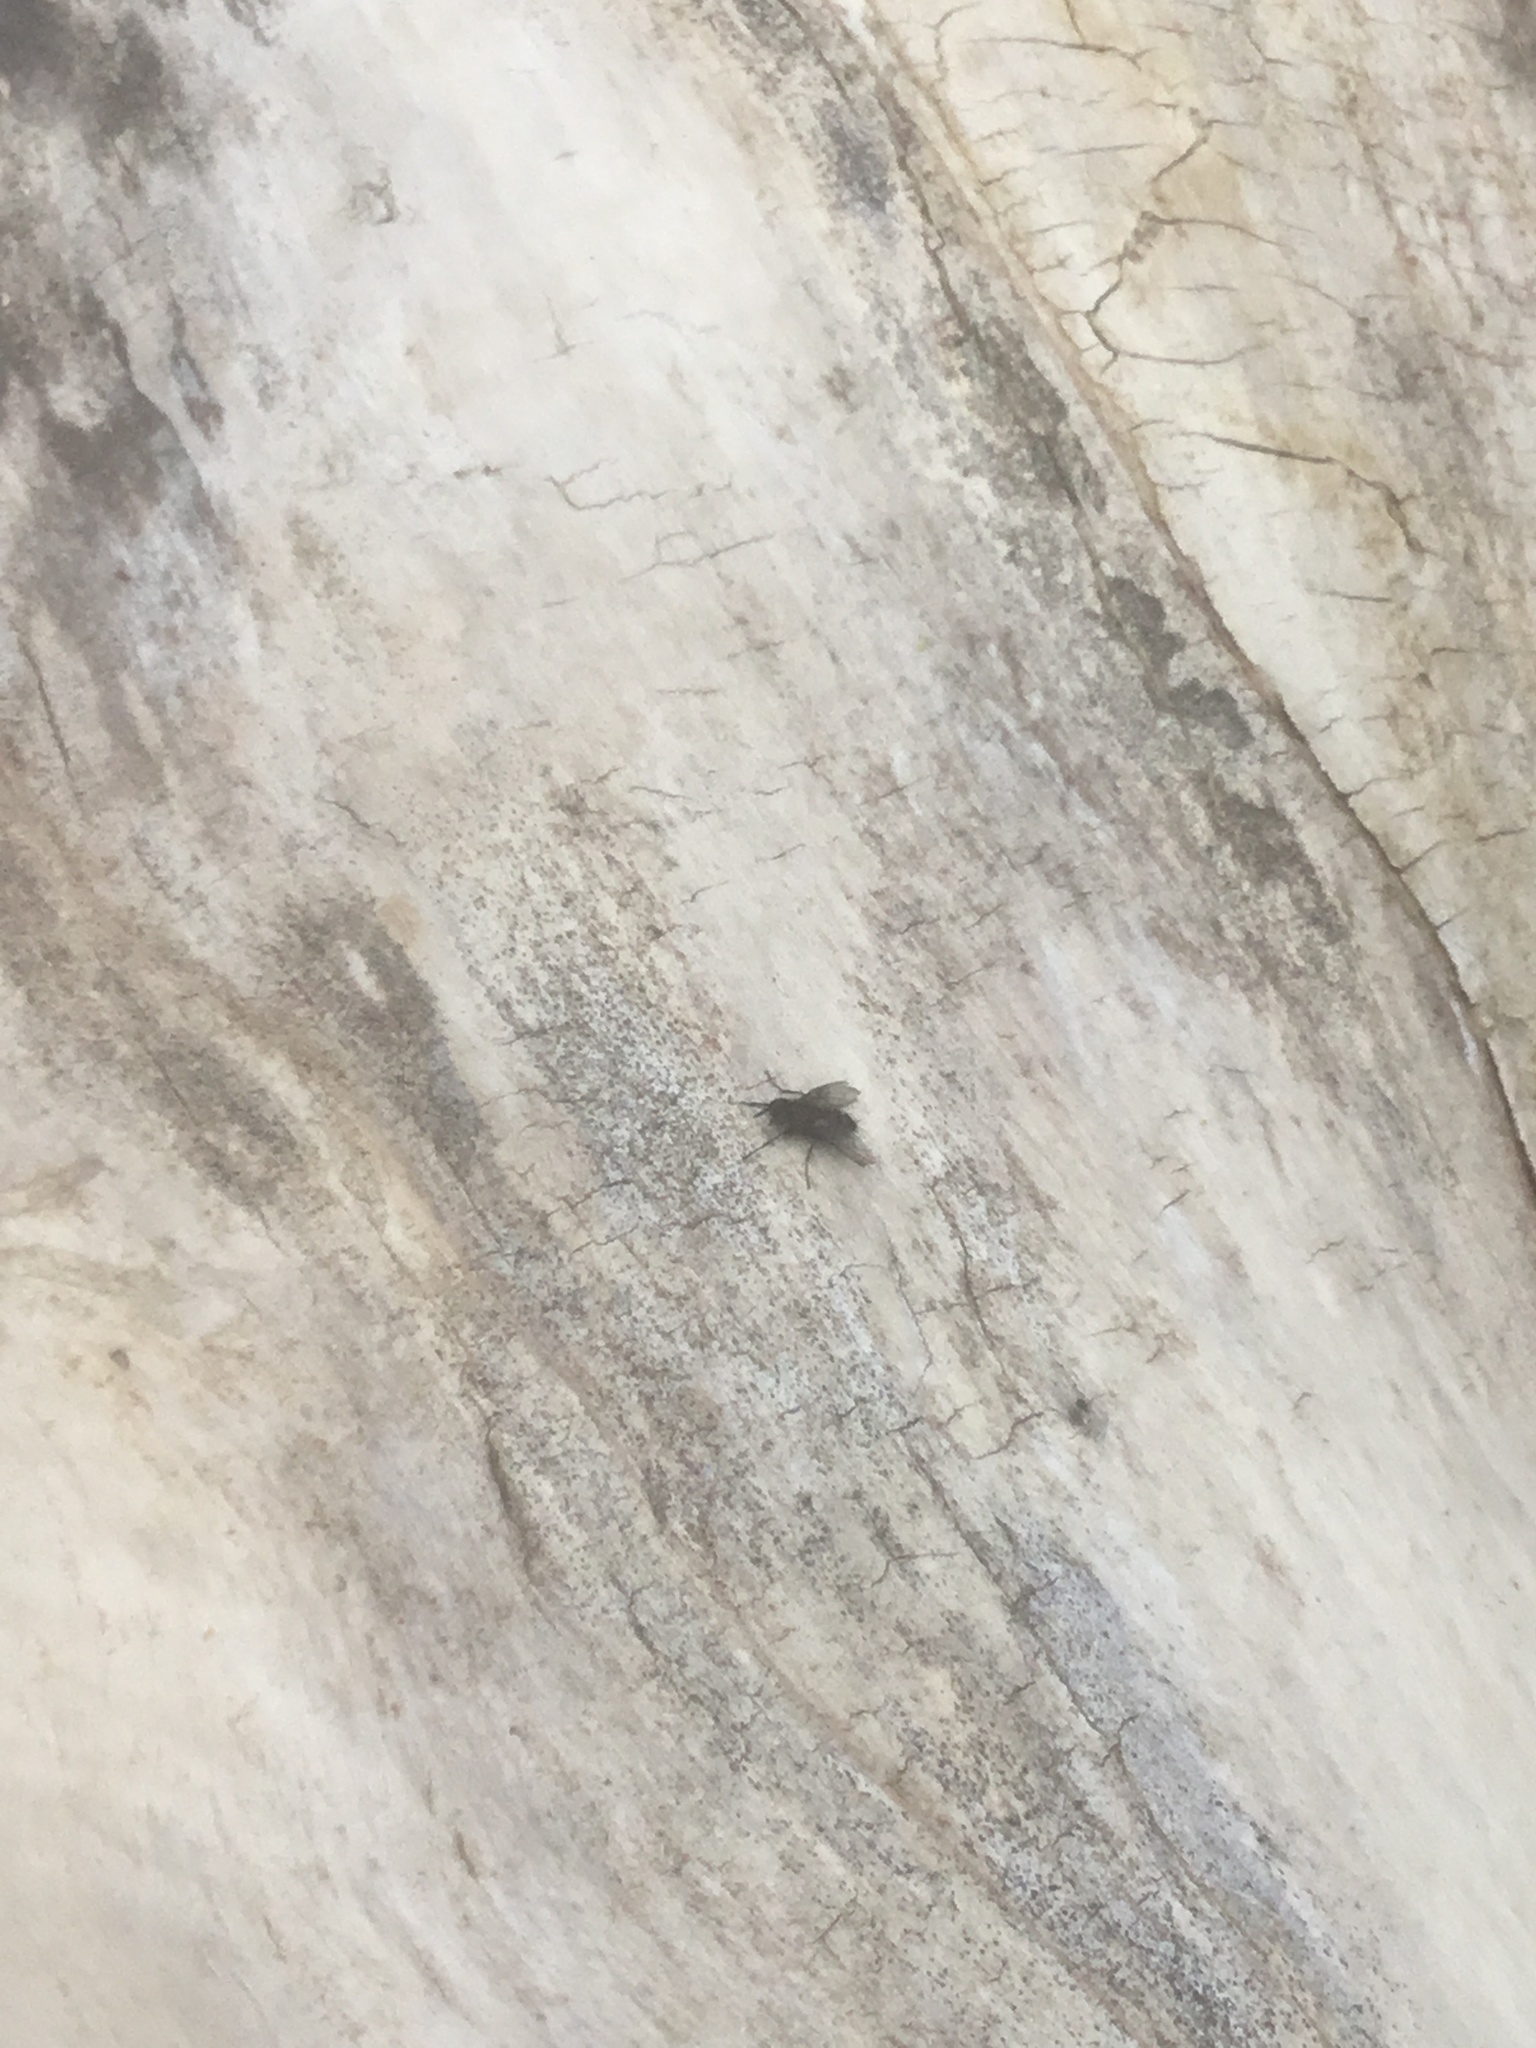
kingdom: Animalia
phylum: Arthropoda
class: Insecta
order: Diptera
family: Calliphoridae
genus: Calliphora
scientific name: Calliphora vicina
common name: Common blow flie
